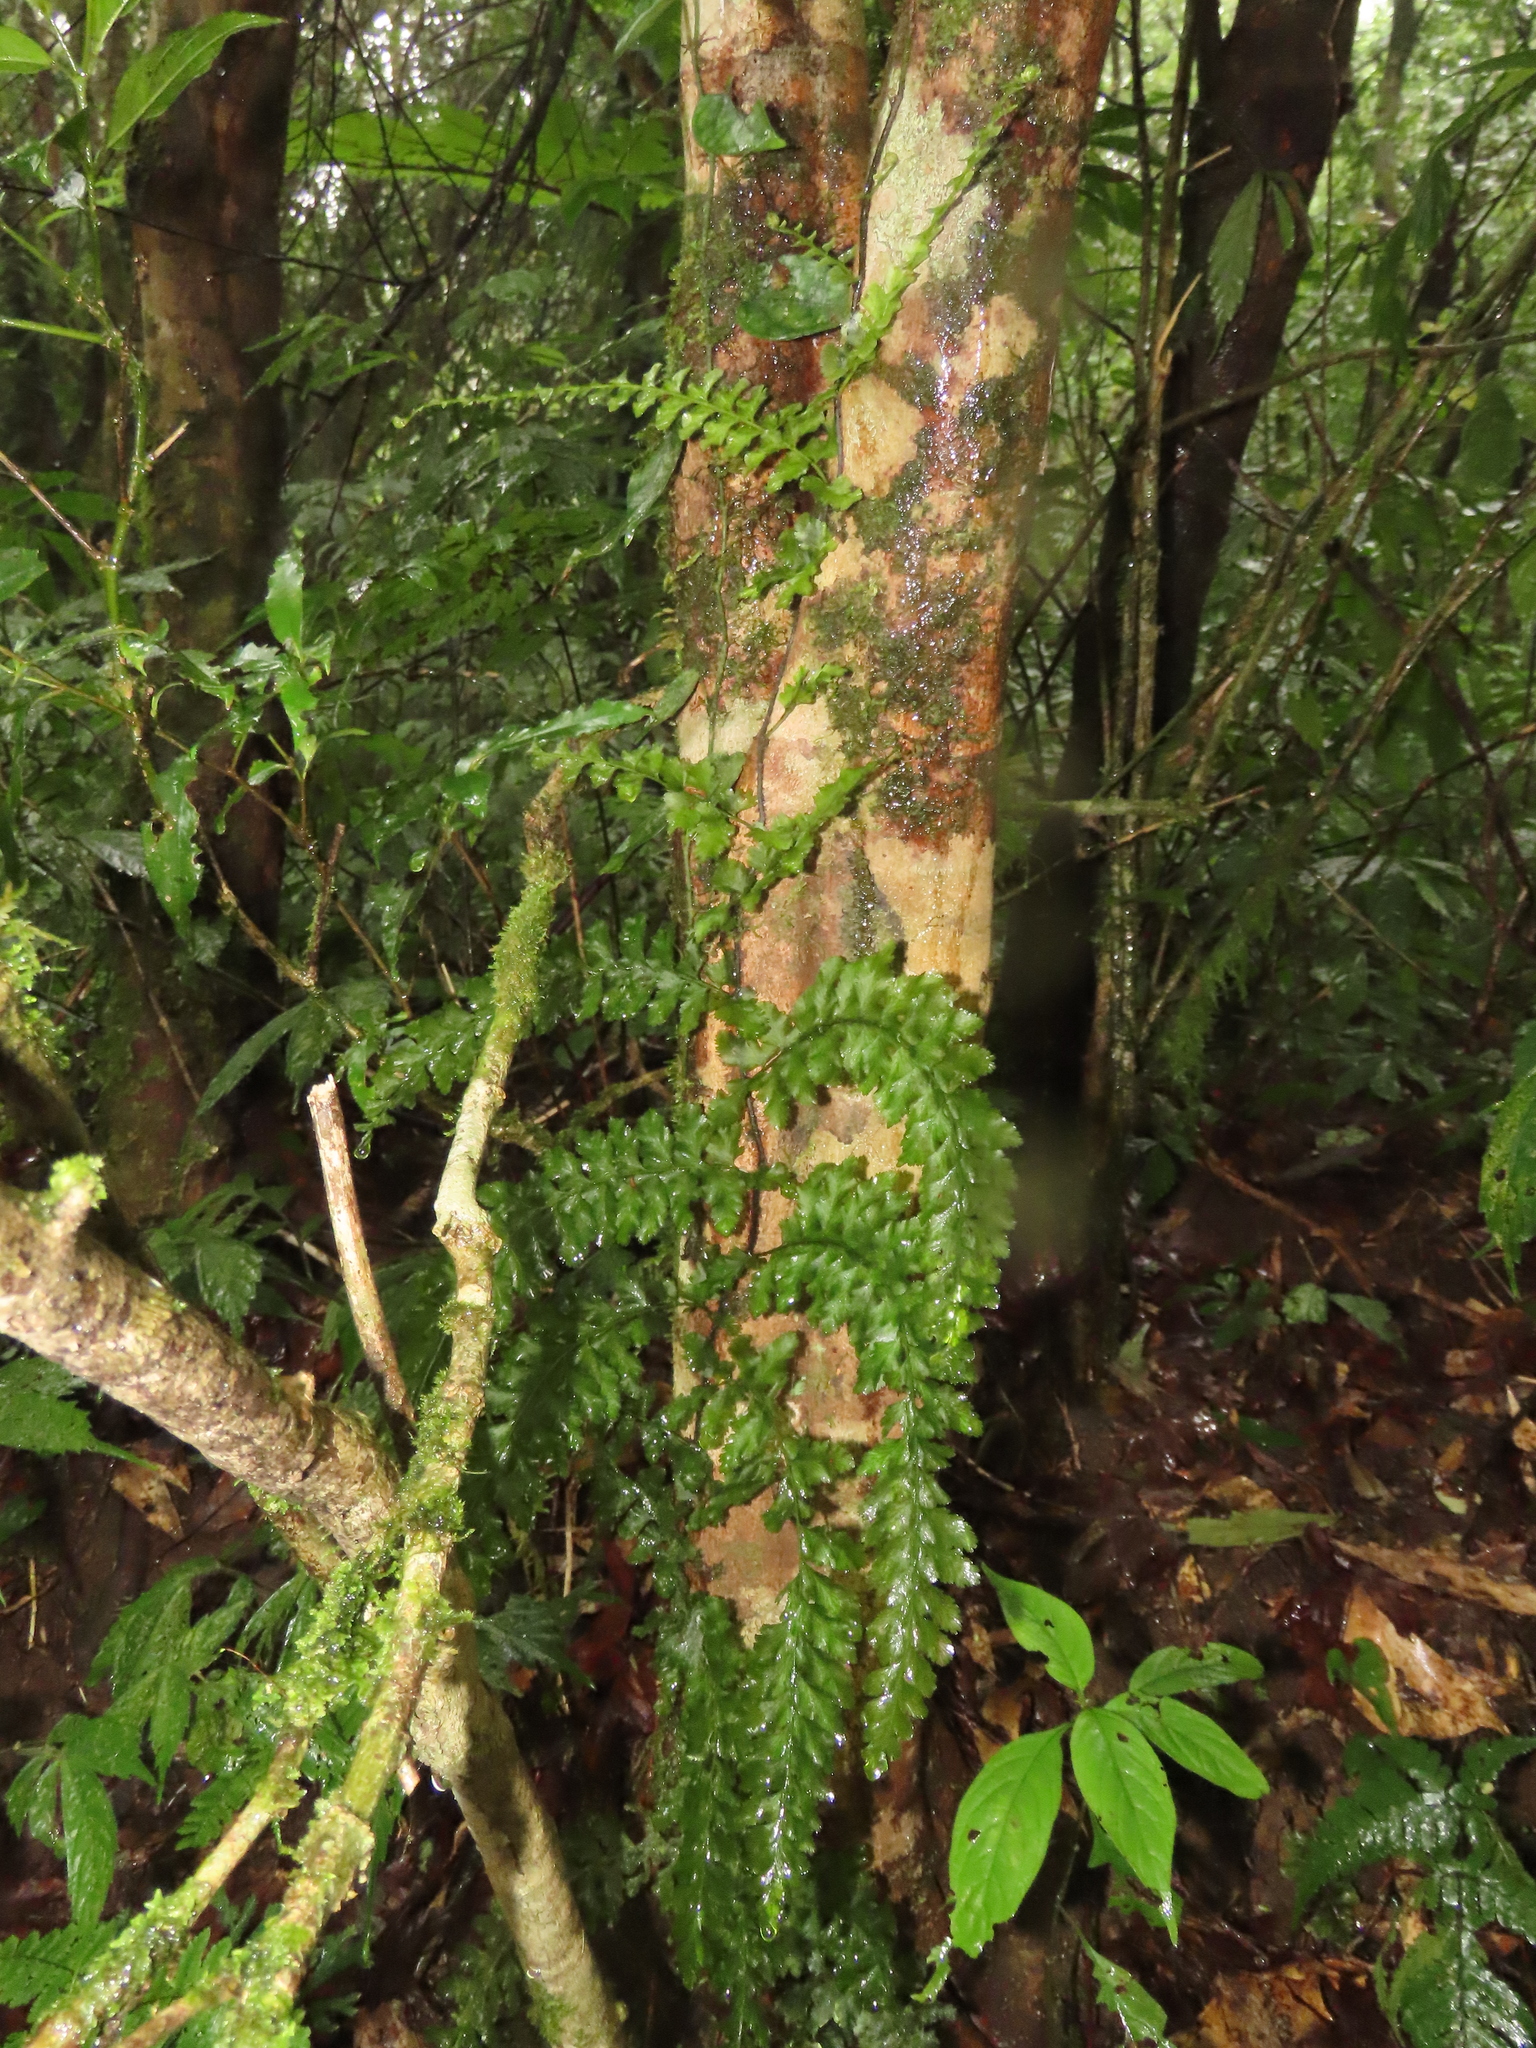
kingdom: Plantae
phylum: Tracheophyta
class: Polypodiopsida
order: Hymenophyllales
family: Hymenophyllaceae
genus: Vandenboschia
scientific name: Vandenboschia auriculata
